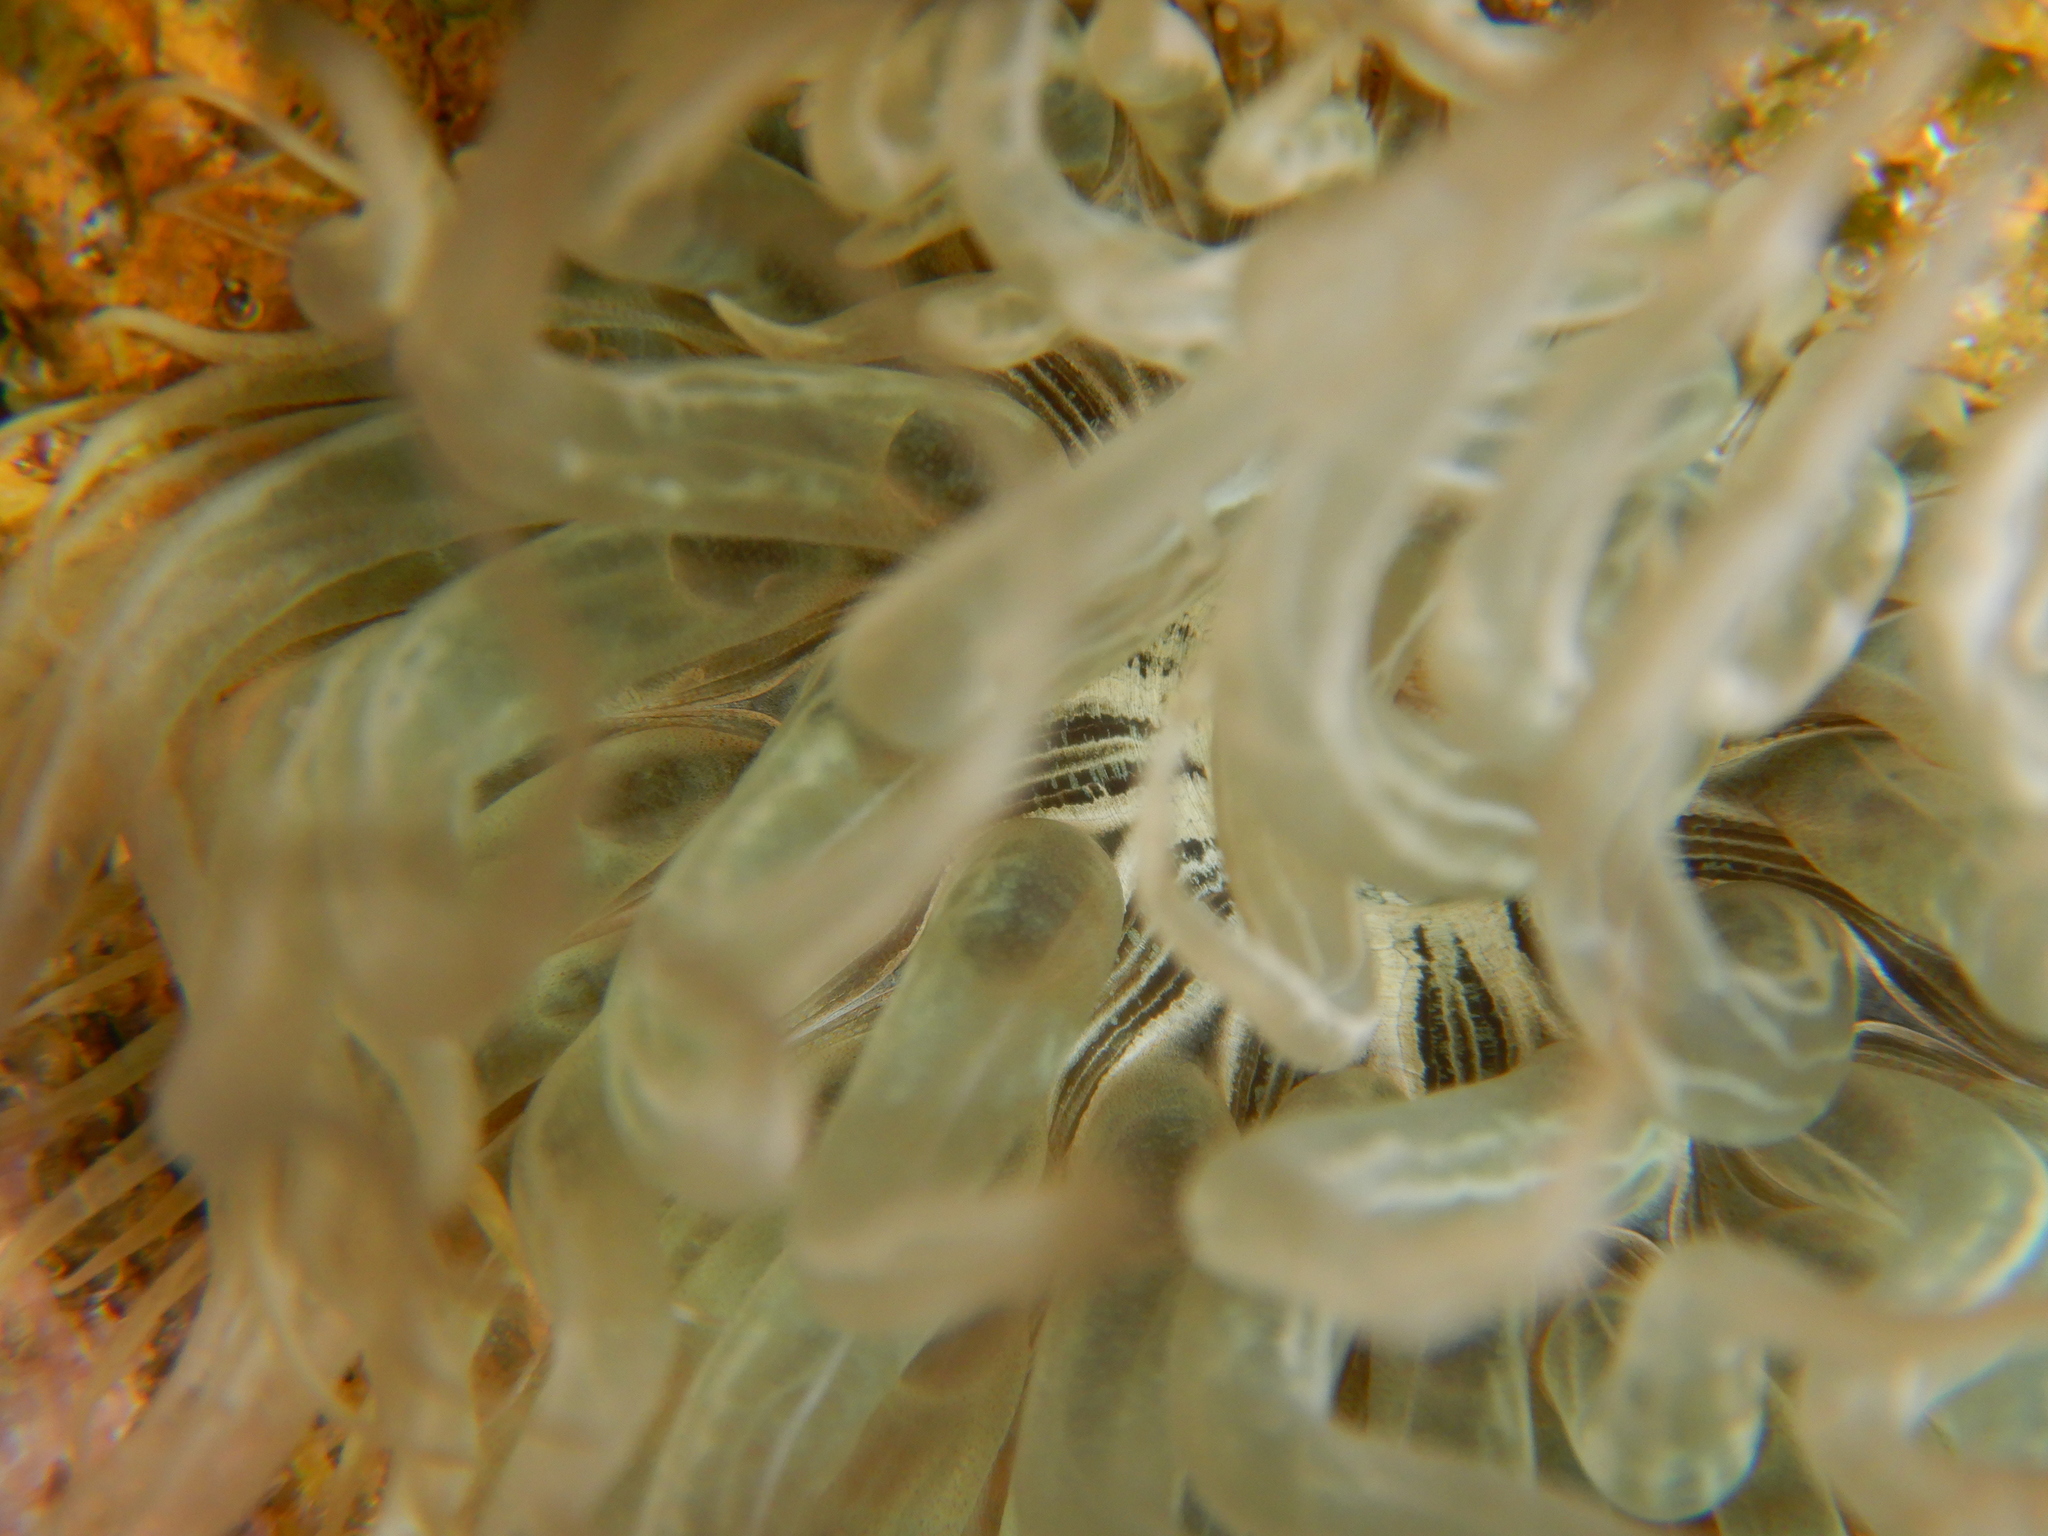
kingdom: Animalia
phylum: Cnidaria
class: Anthozoa
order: Actiniaria
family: Aiptasiidae
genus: Aiptasia
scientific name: Aiptasia mutabilis
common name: Trumpet anemone
